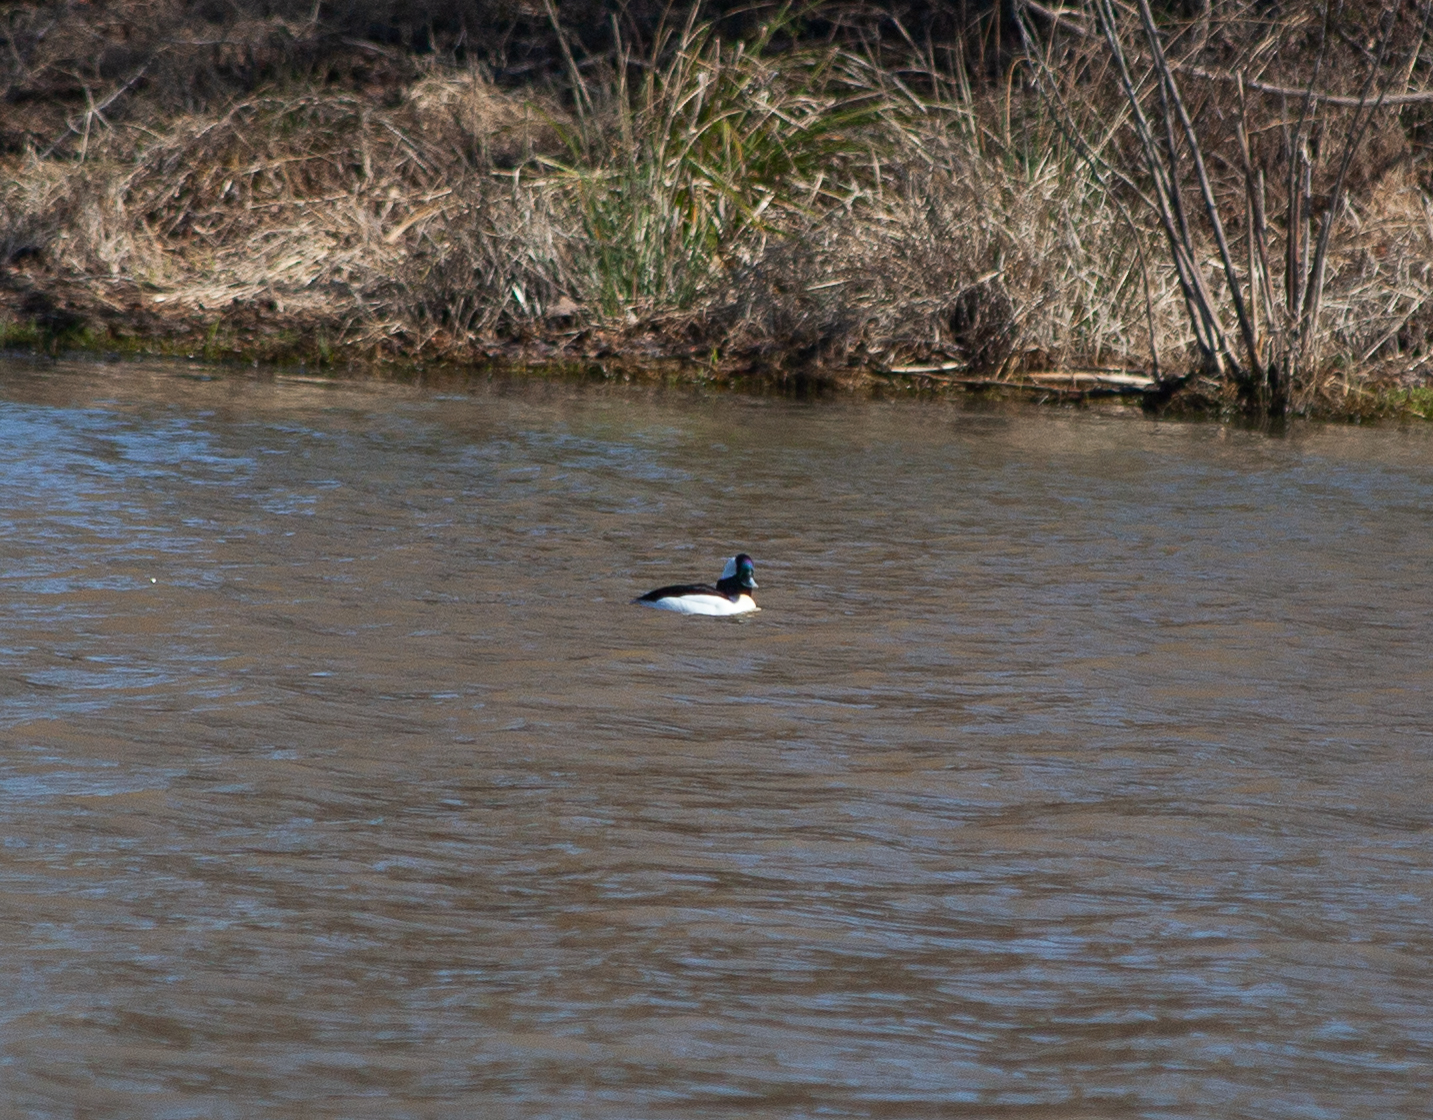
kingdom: Animalia
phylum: Chordata
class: Aves
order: Anseriformes
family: Anatidae
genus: Bucephala
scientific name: Bucephala albeola
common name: Bufflehead
